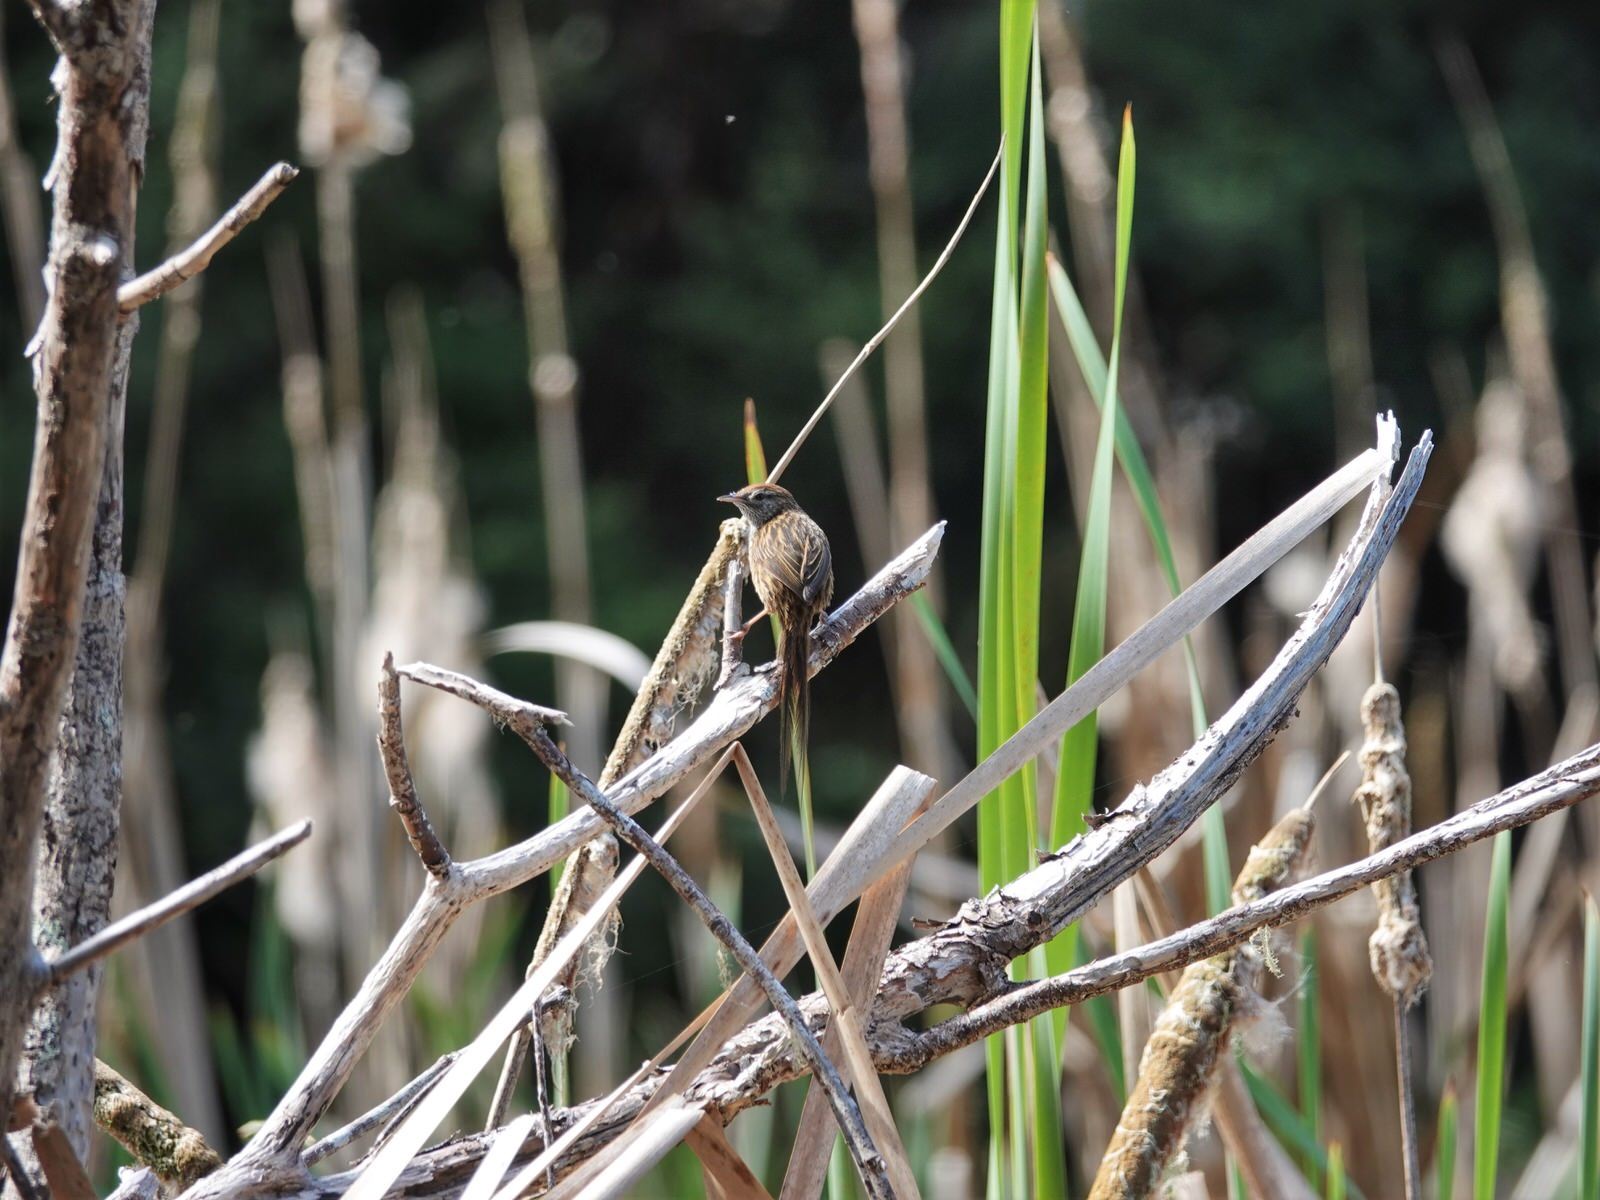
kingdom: Animalia
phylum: Chordata
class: Aves
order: Passeriformes
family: Locustellidae
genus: Megalurus
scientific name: Megalurus punctatus
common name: New zealand fernbird
